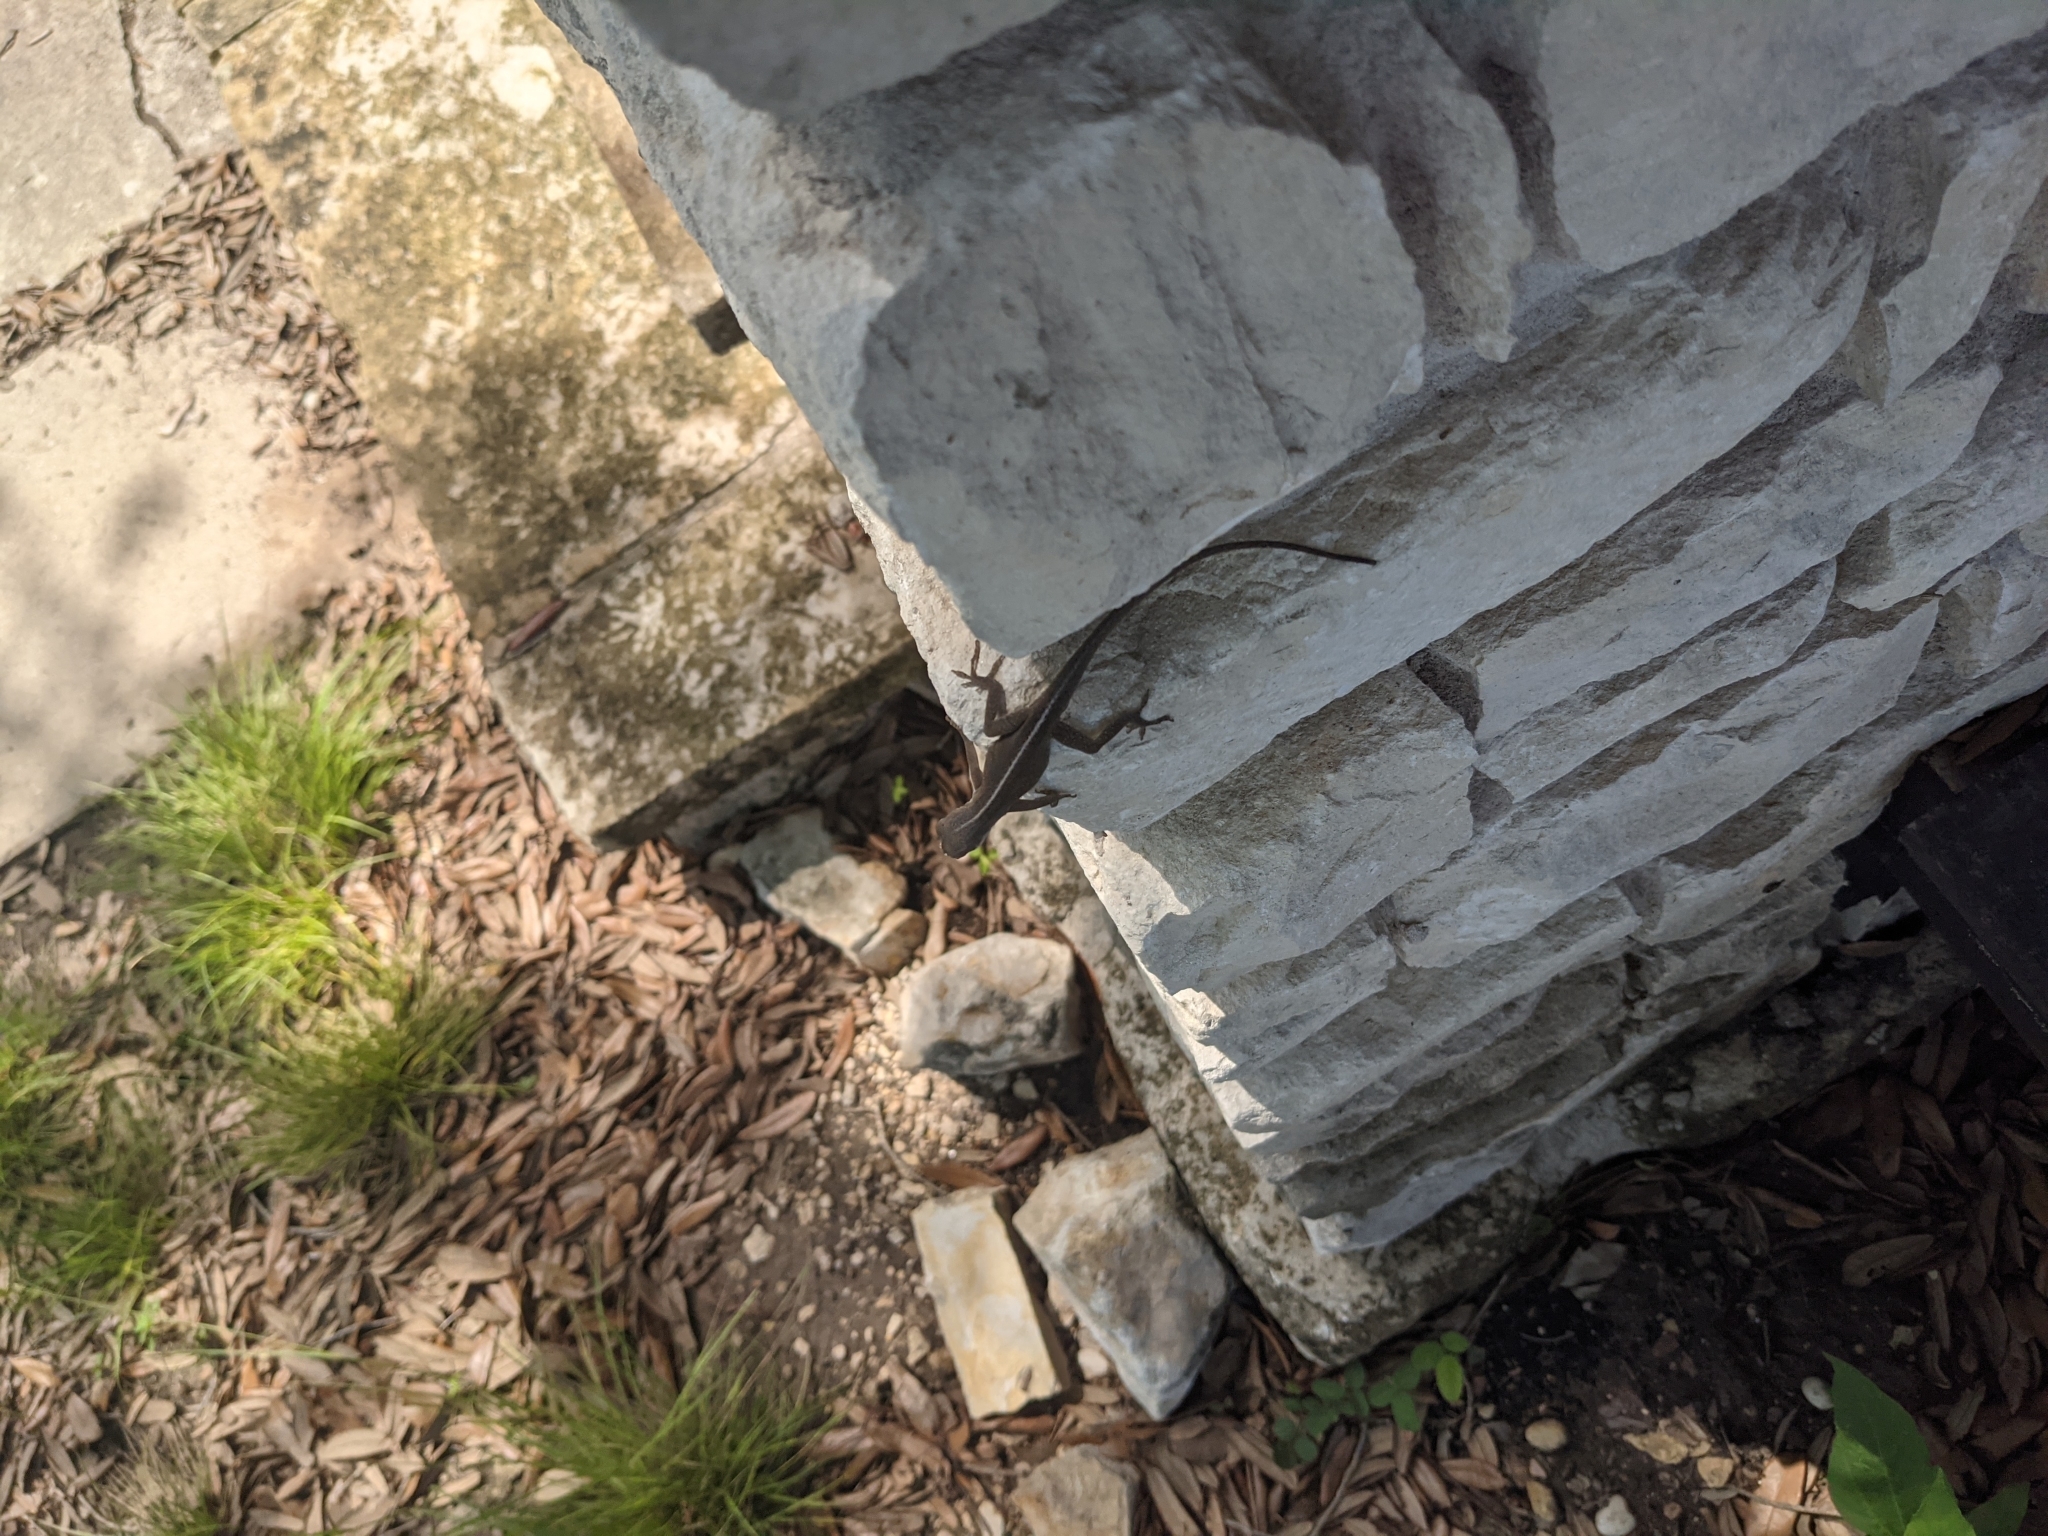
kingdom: Animalia
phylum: Chordata
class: Squamata
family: Dactyloidae
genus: Anolis
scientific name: Anolis carolinensis
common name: Green anole
